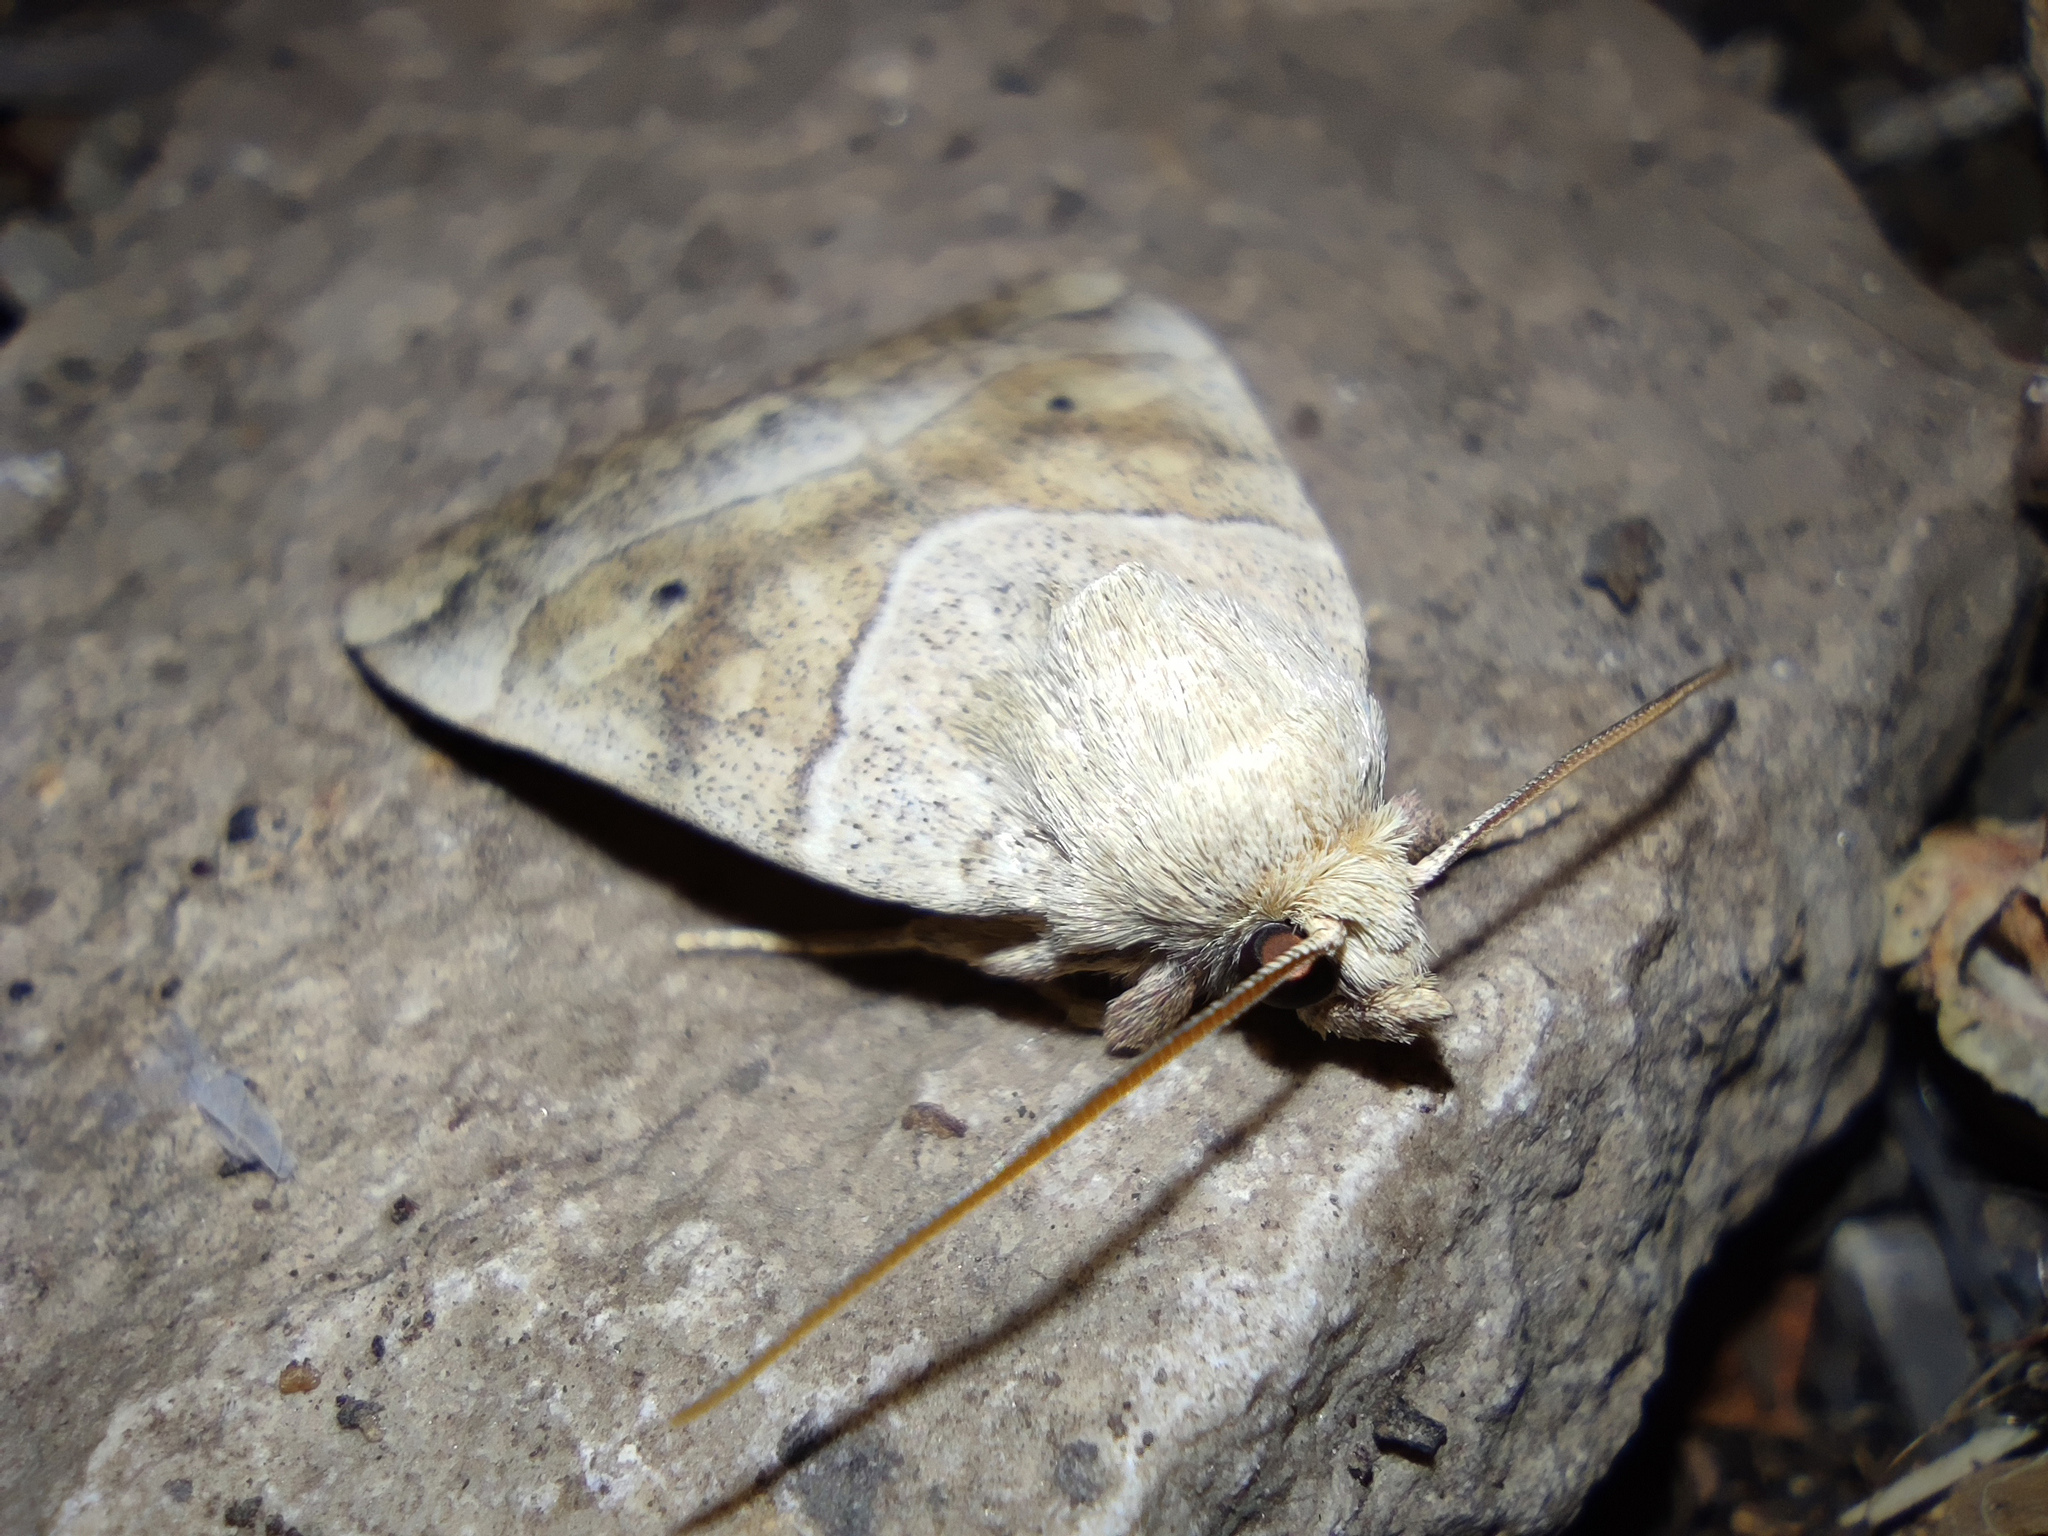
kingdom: Animalia
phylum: Arthropoda
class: Insecta
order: Lepidoptera
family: Noctuidae
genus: Cosmia
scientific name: Cosmia trapezina
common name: Dun-bar
